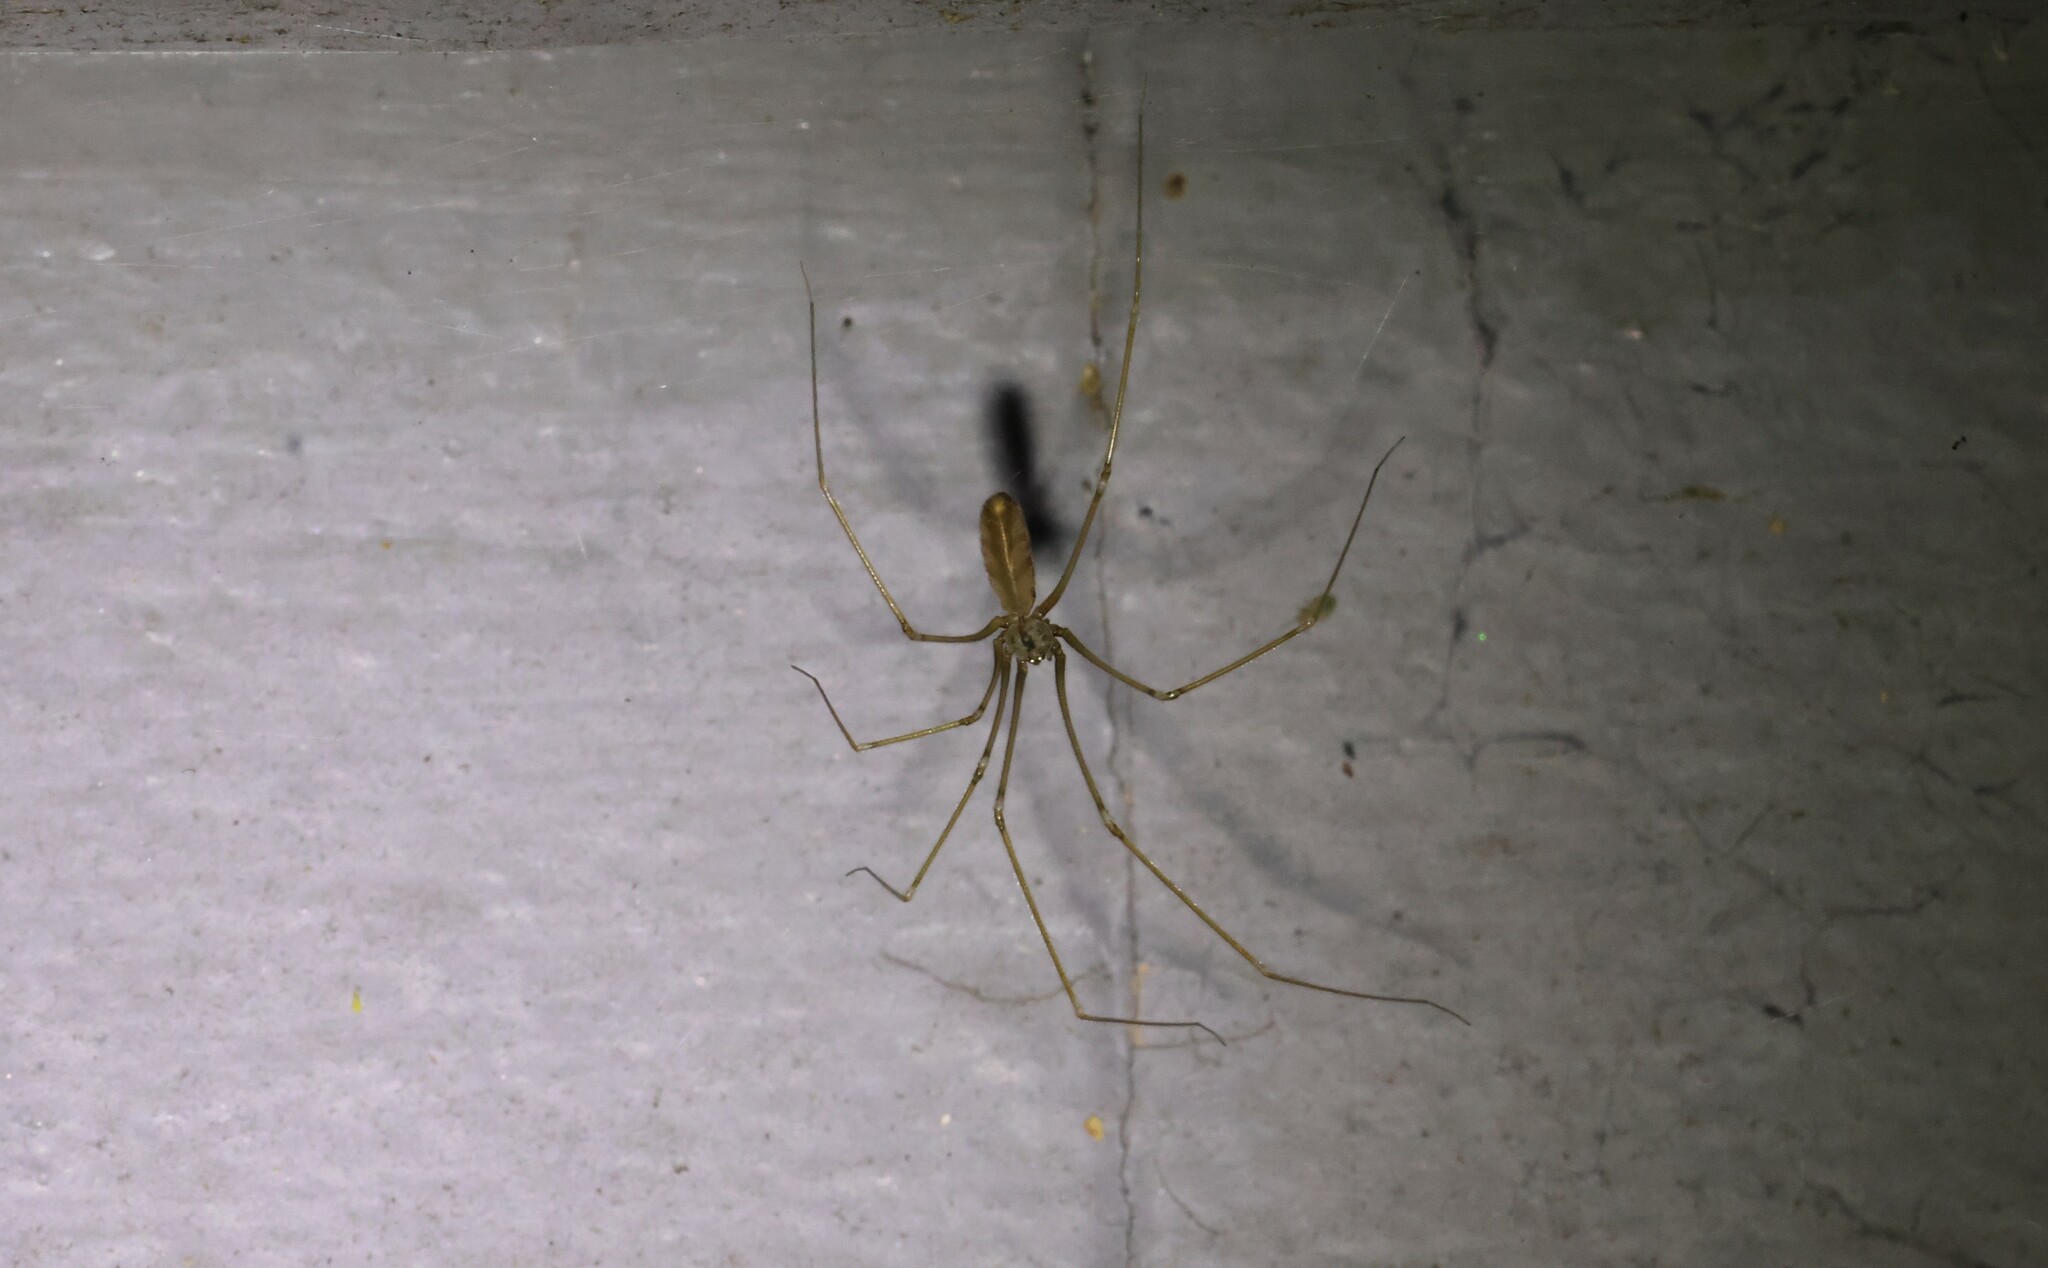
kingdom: Animalia
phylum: Arthropoda
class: Arachnida
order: Araneae
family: Pholcidae
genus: Pholcus
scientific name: Pholcus opilionoides
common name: Daddylongleg spider
